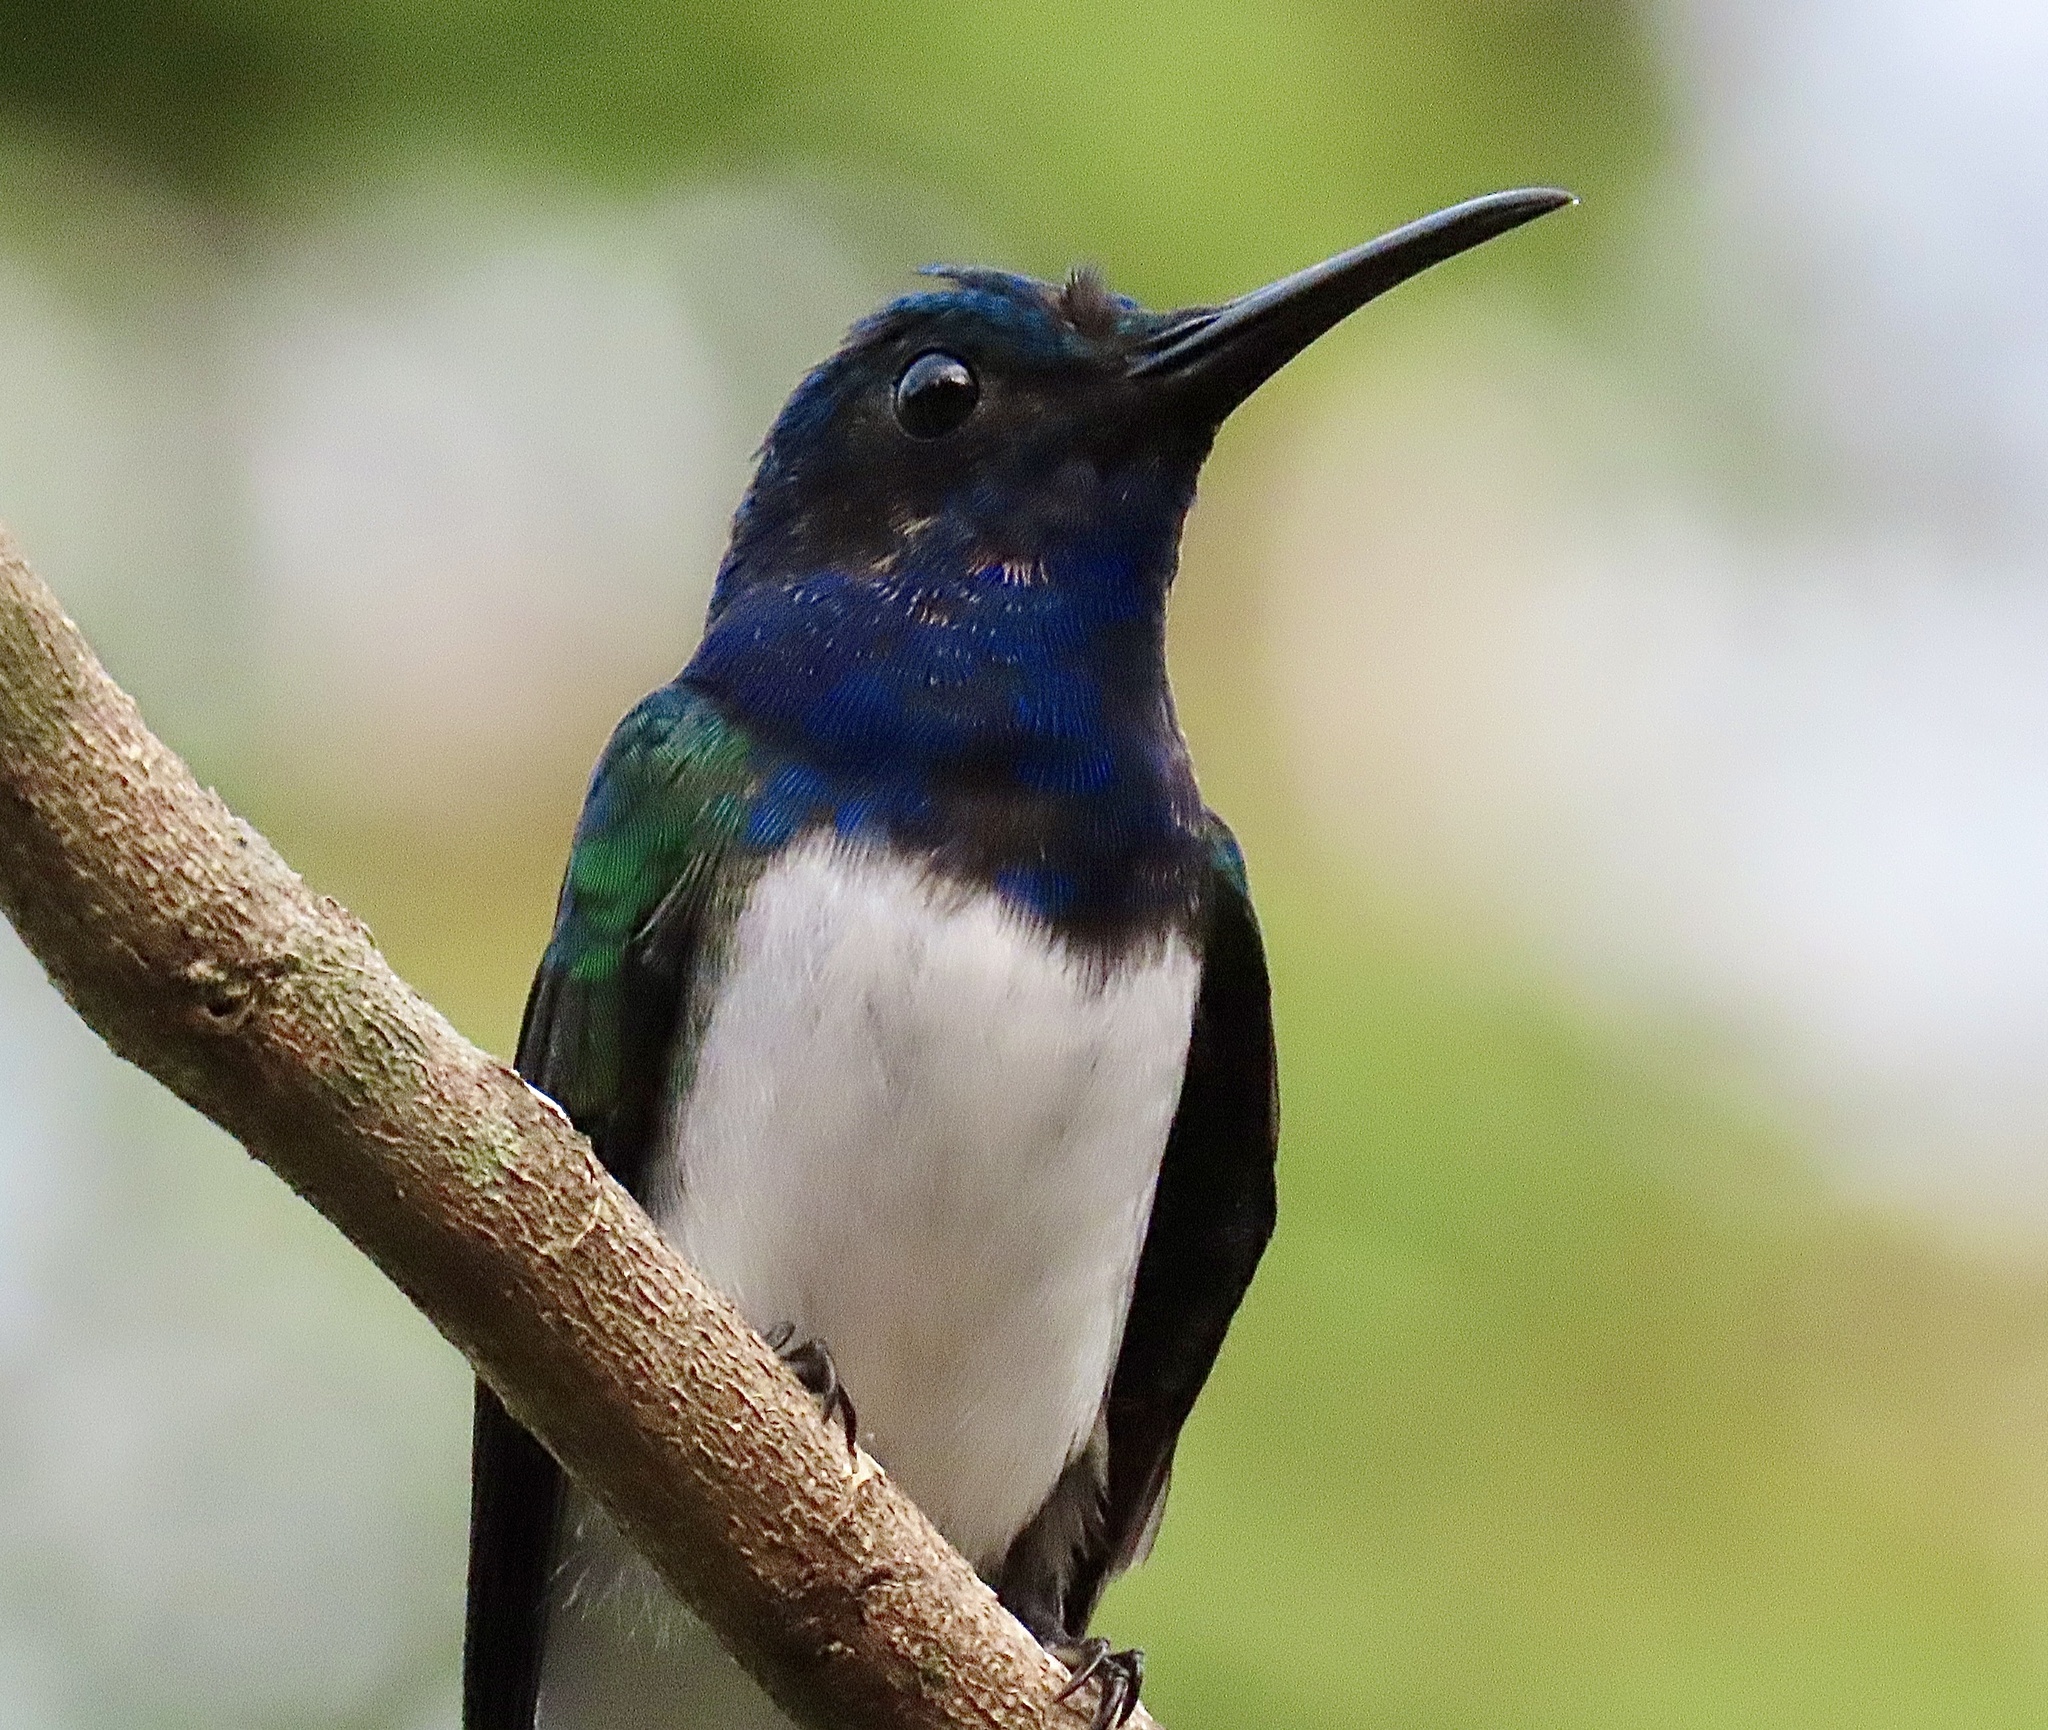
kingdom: Animalia
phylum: Chordata
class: Aves
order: Apodiformes
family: Trochilidae
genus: Florisuga
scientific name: Florisuga mellivora
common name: White-necked jacobin
